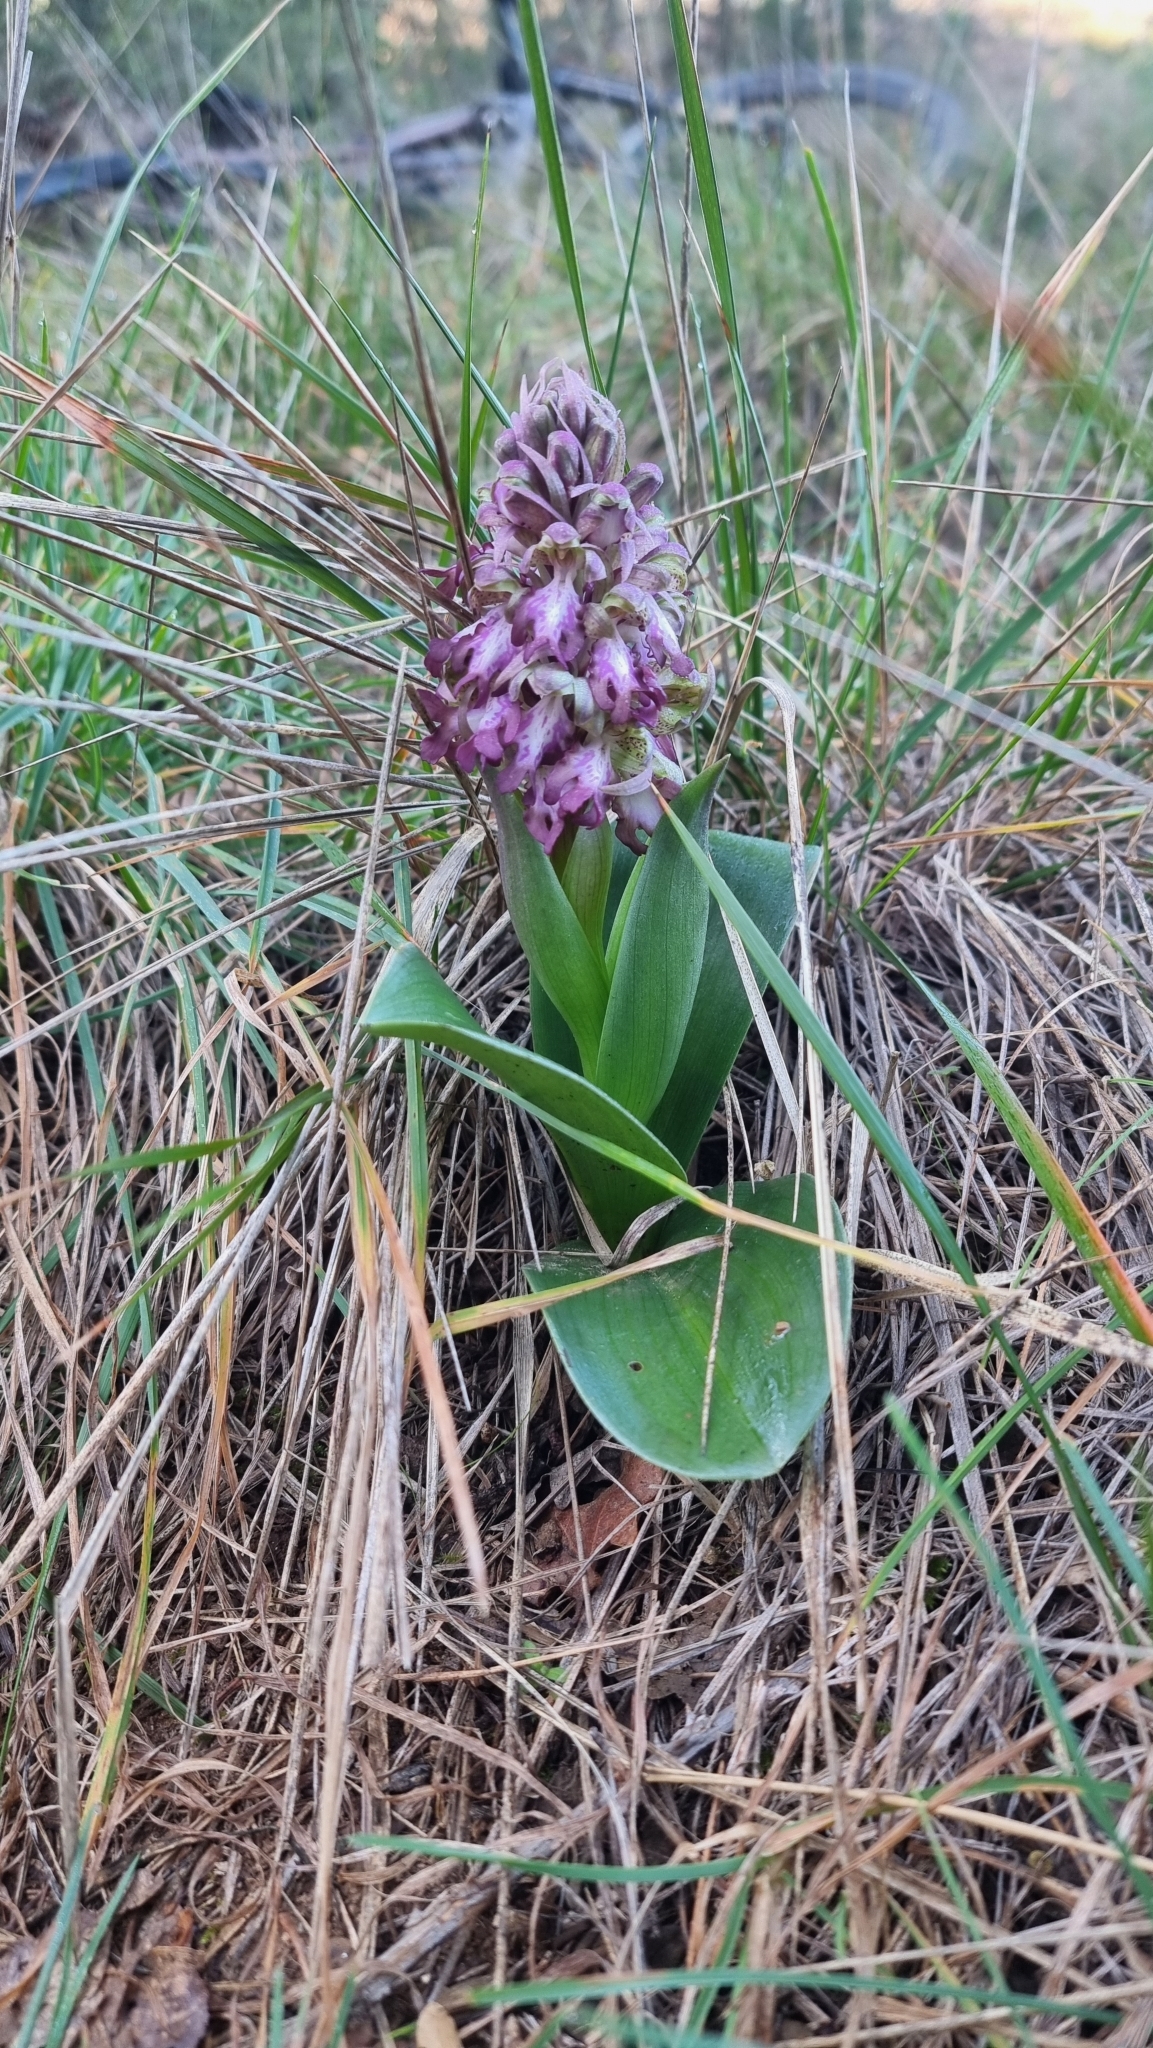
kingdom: Plantae
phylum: Tracheophyta
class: Liliopsida
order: Asparagales
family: Orchidaceae
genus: Himantoglossum
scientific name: Himantoglossum robertianum
